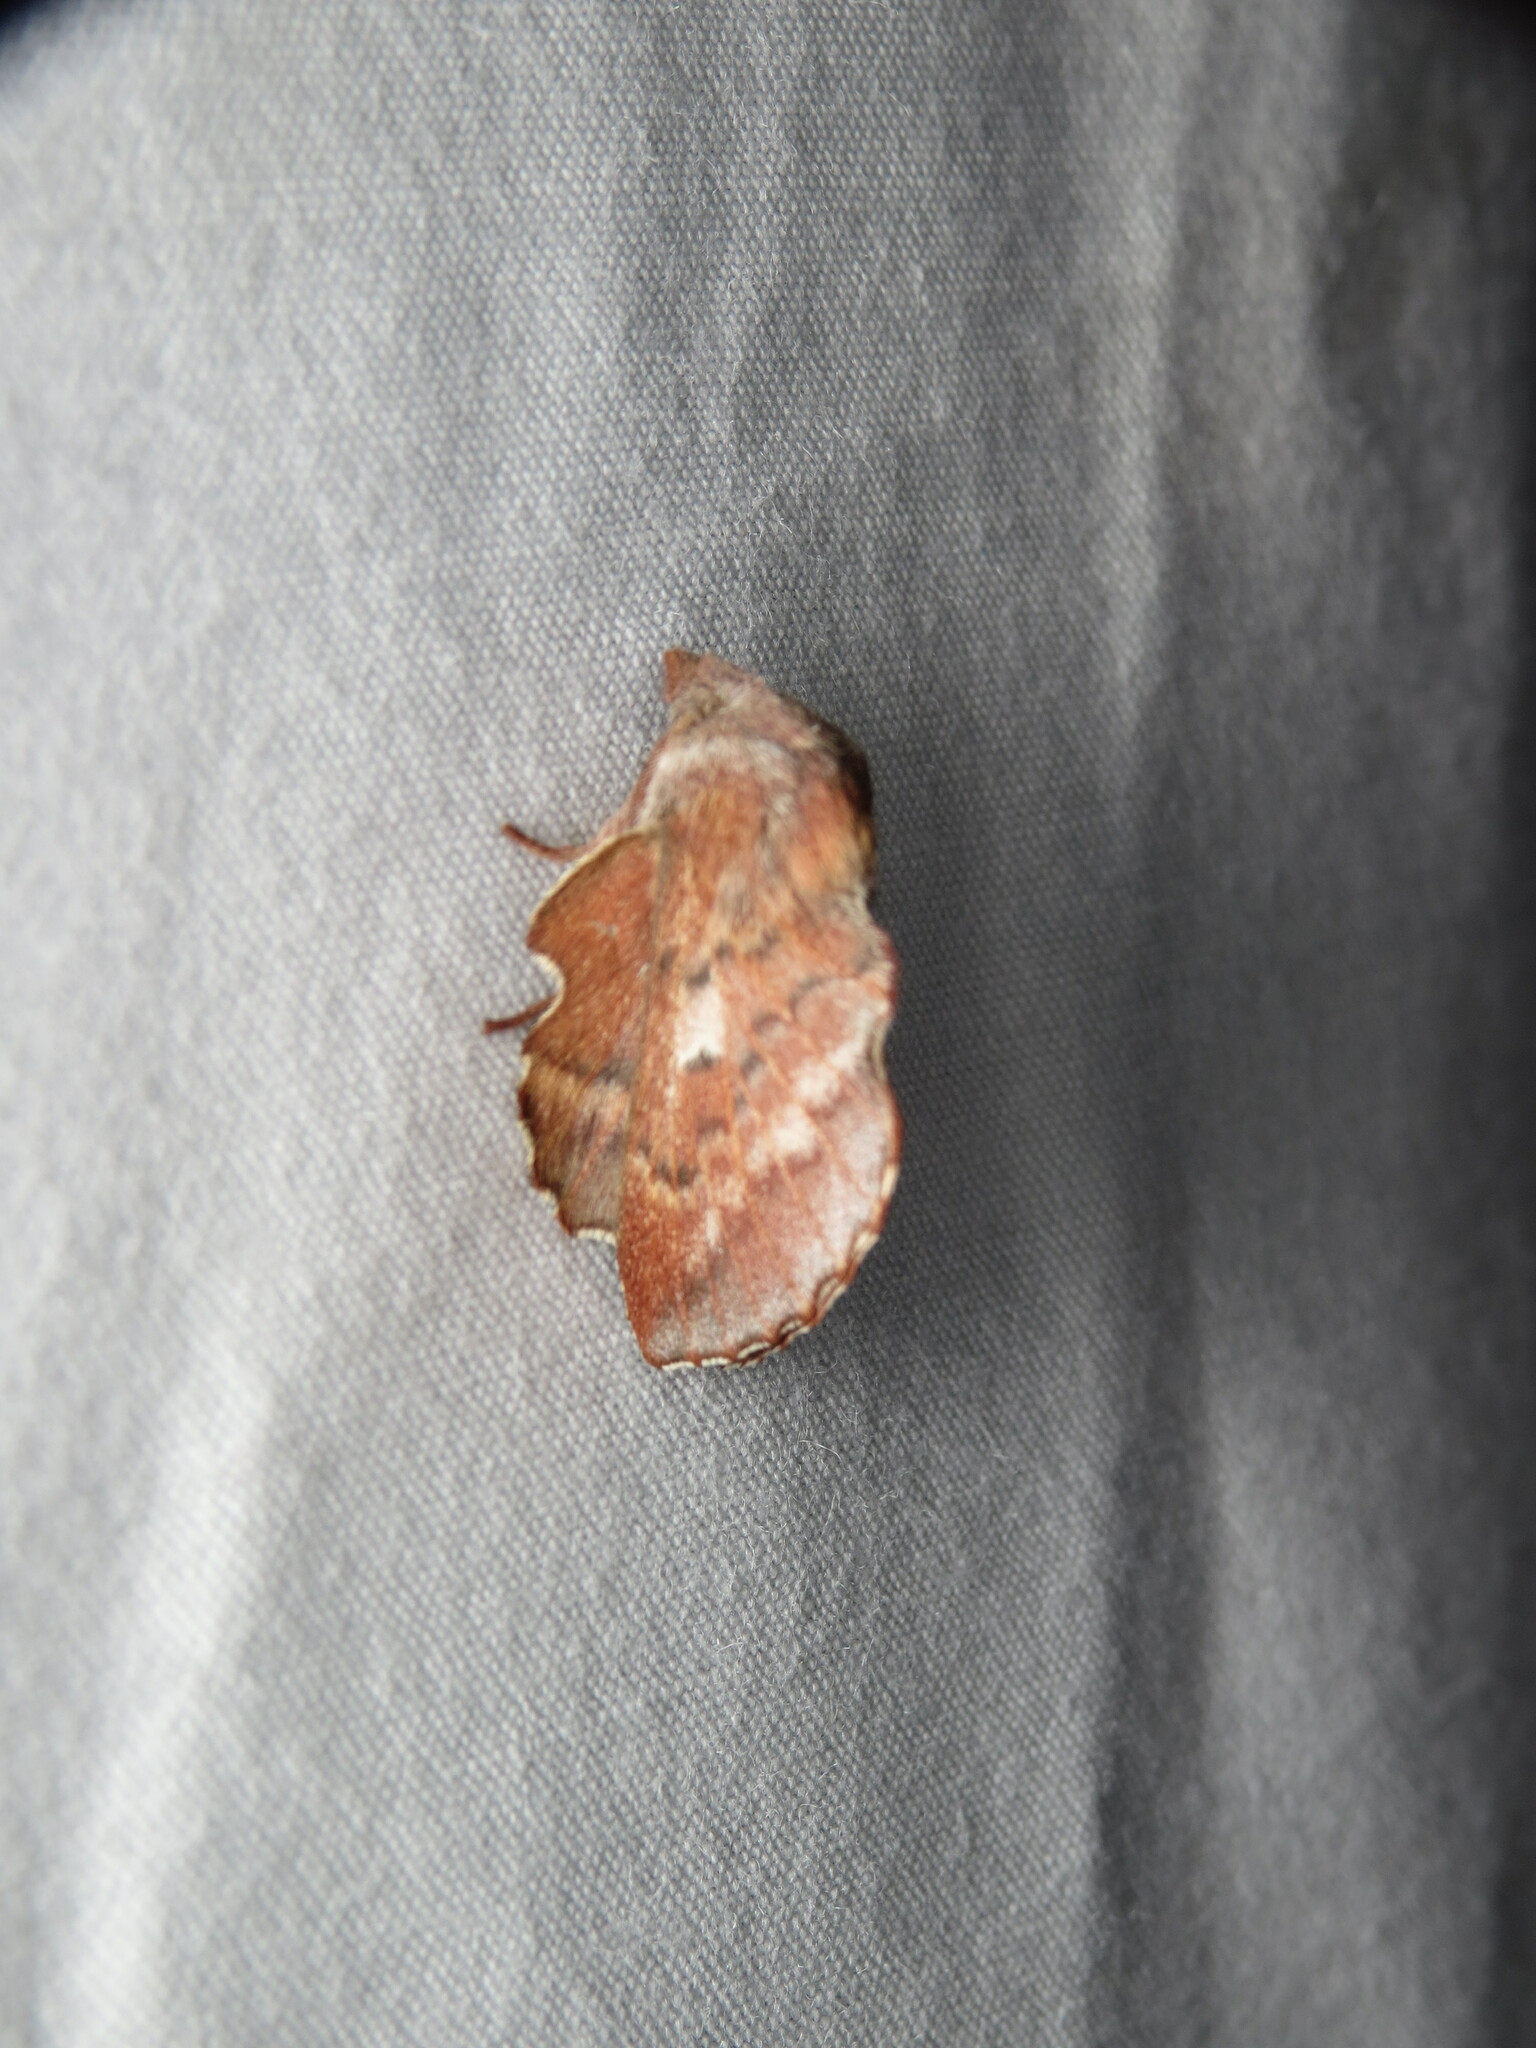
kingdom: Animalia
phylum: Arthropoda
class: Insecta
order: Lepidoptera
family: Lasiocampidae
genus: Phyllodesma
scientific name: Phyllodesma americana
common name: American lappet moth
